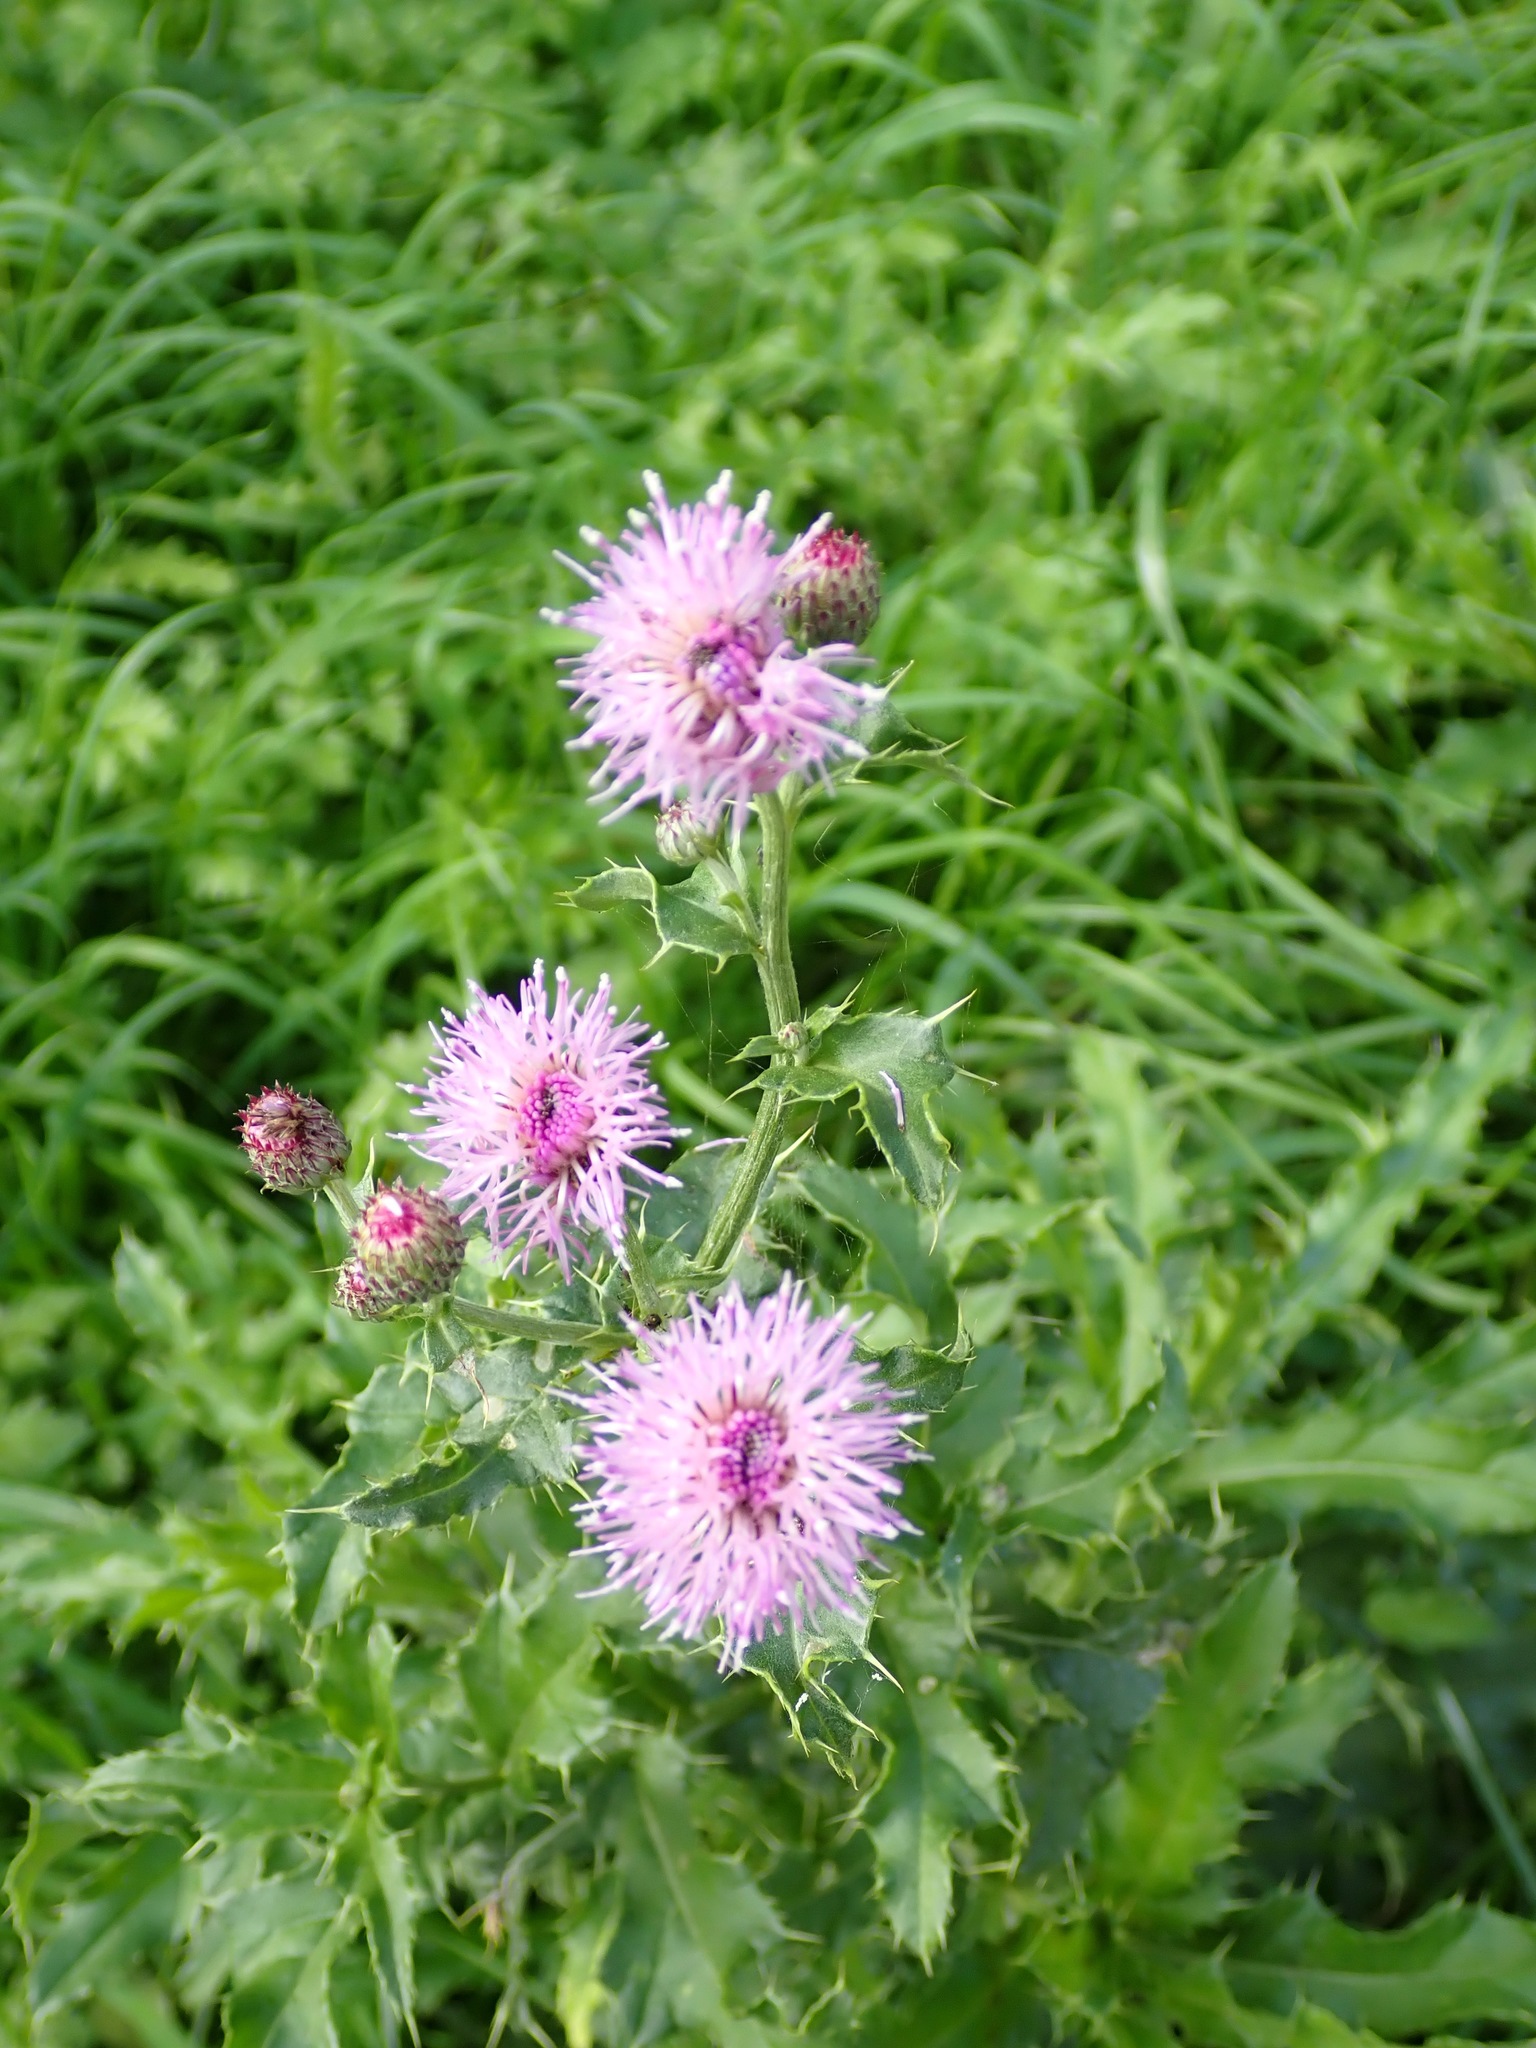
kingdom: Plantae
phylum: Tracheophyta
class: Magnoliopsida
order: Asterales
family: Asteraceae
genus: Cirsium
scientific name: Cirsium arvense
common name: Creeping thistle
